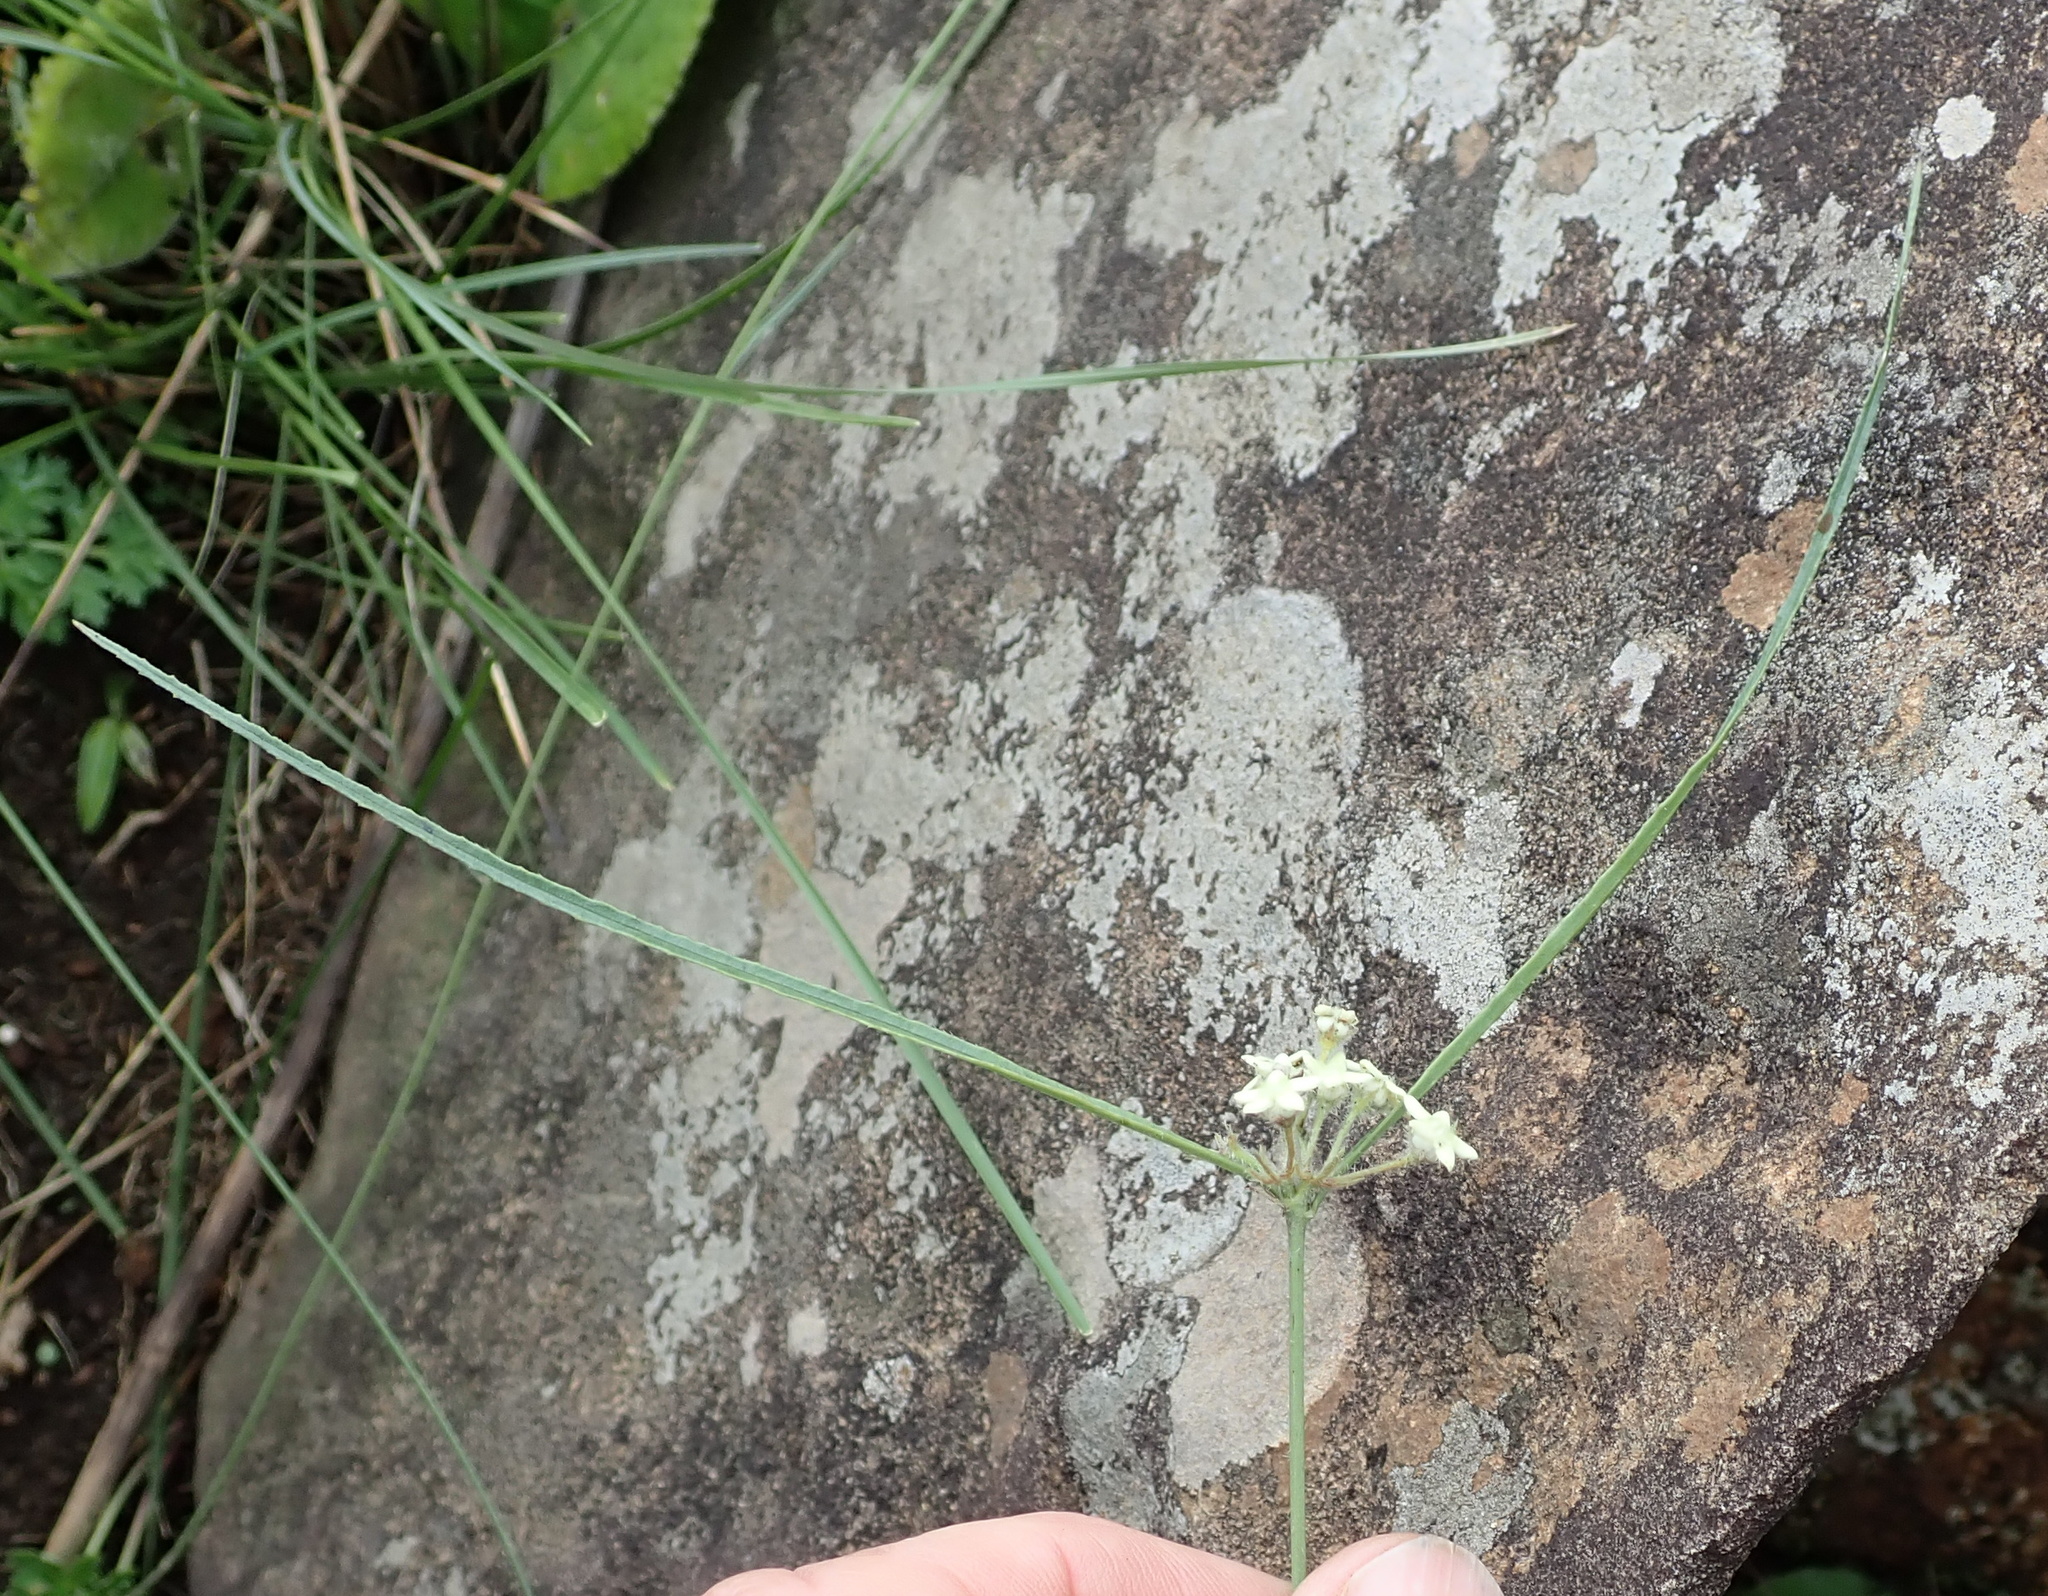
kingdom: Plantae
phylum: Tracheophyta
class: Magnoliopsida
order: Gentianales
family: Apocynaceae
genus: Sisyranthus
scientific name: Sisyranthus trichostomus
